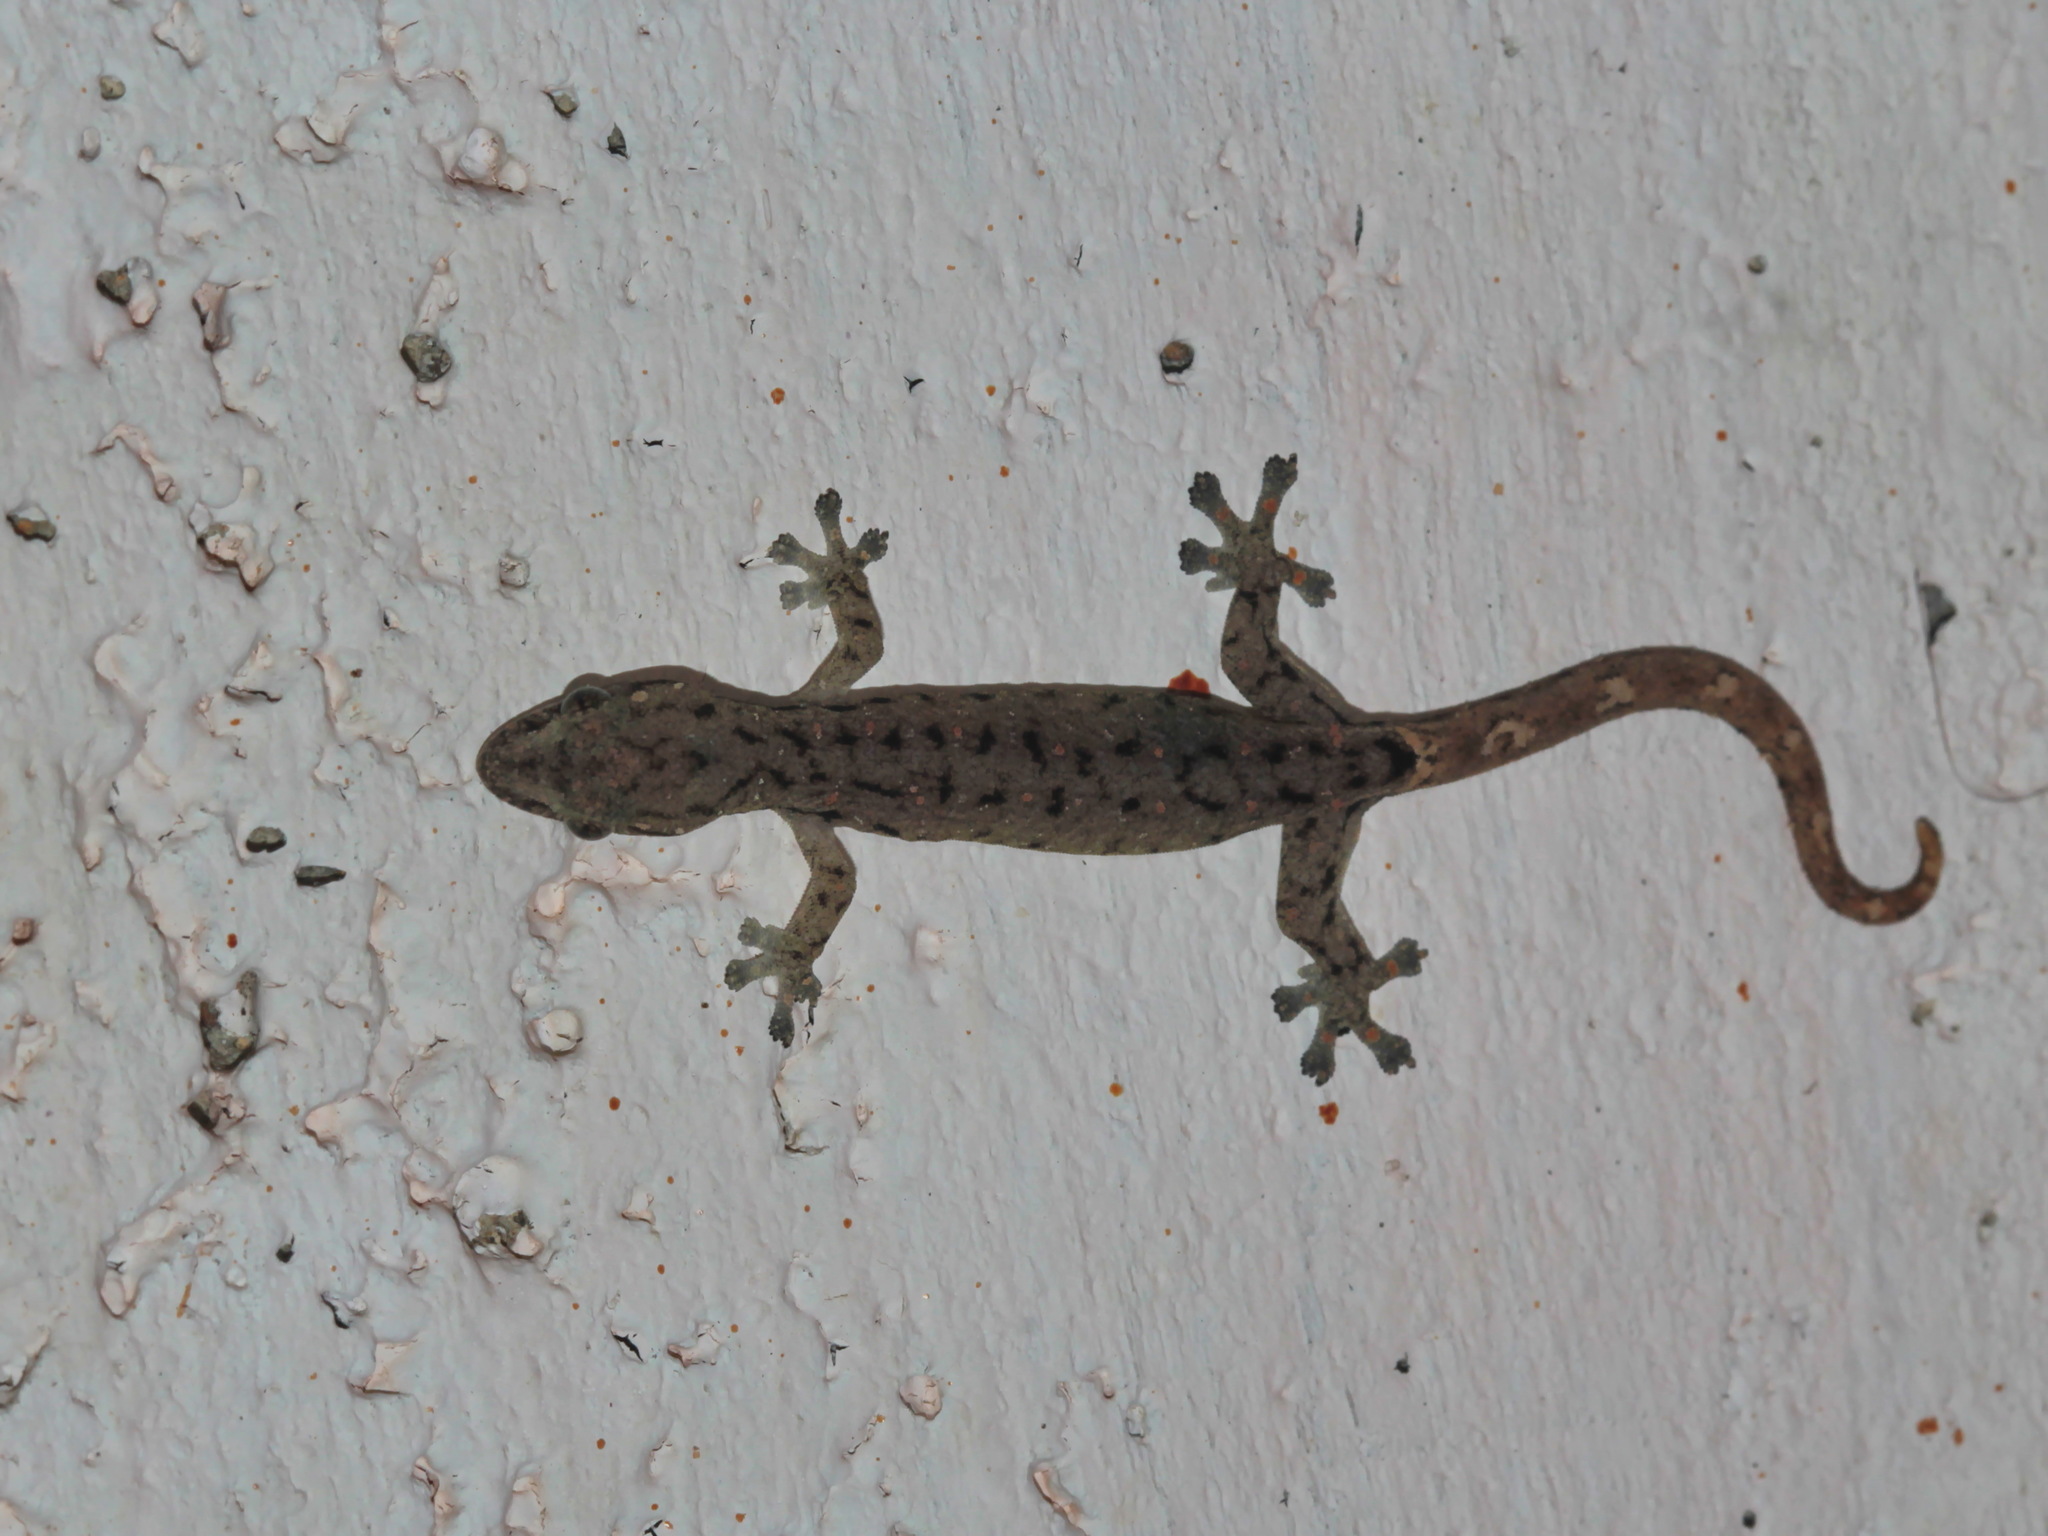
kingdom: Animalia
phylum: Chordata
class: Squamata
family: Gekkonidae
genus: Hemiphyllodactylus
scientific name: Hemiphyllodactylus typus
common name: Common dwarf gecko
